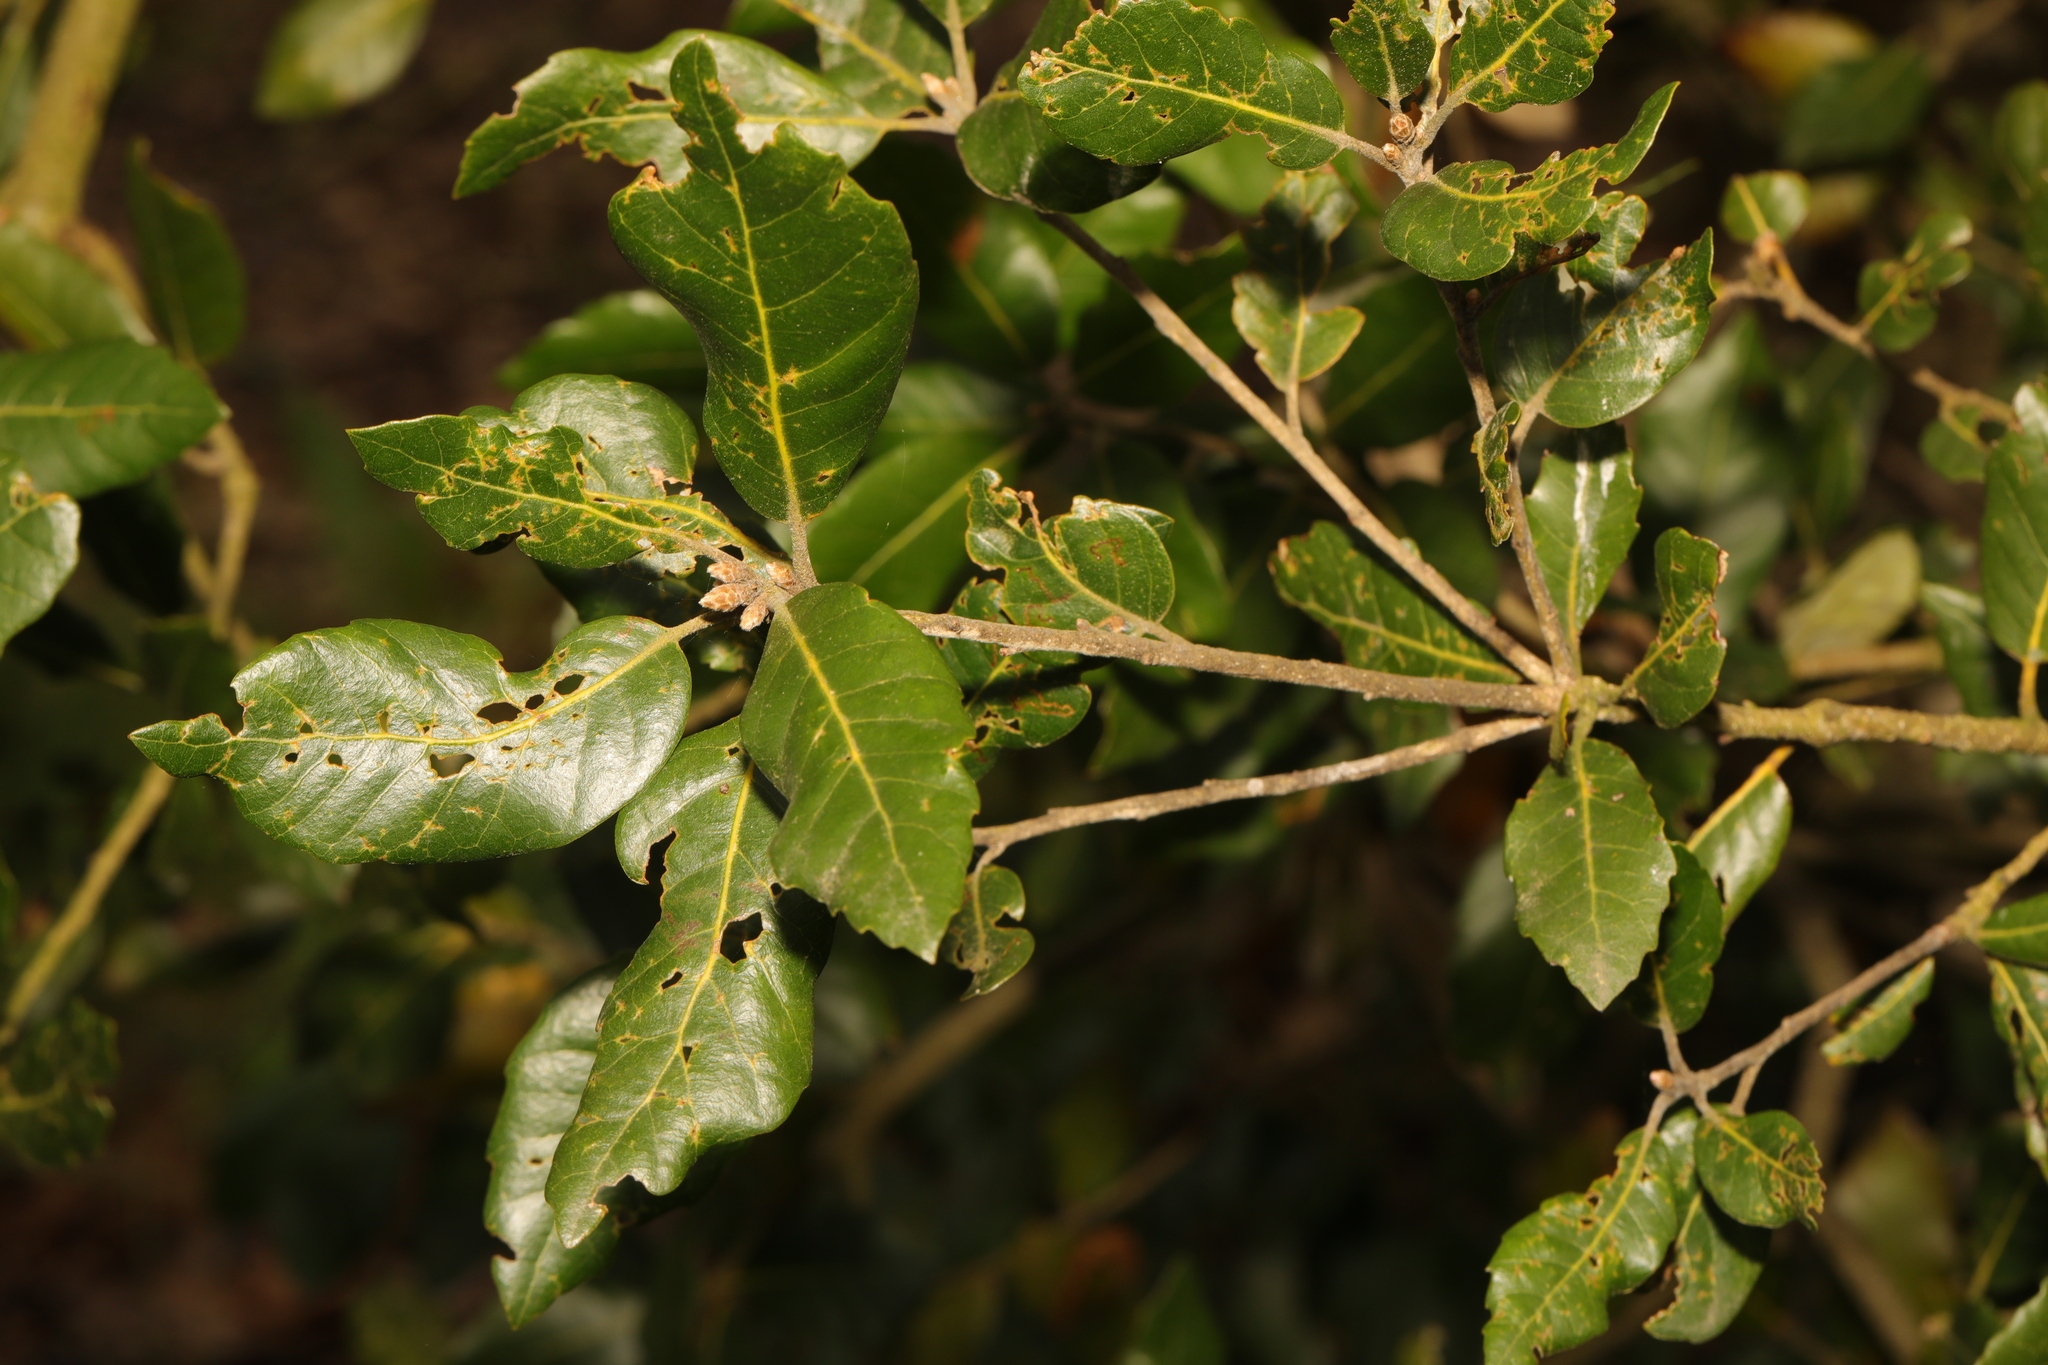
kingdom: Plantae
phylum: Tracheophyta
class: Magnoliopsida
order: Fagales
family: Fagaceae
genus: Quercus
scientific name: Quercus ilex
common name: Evergreen oak
